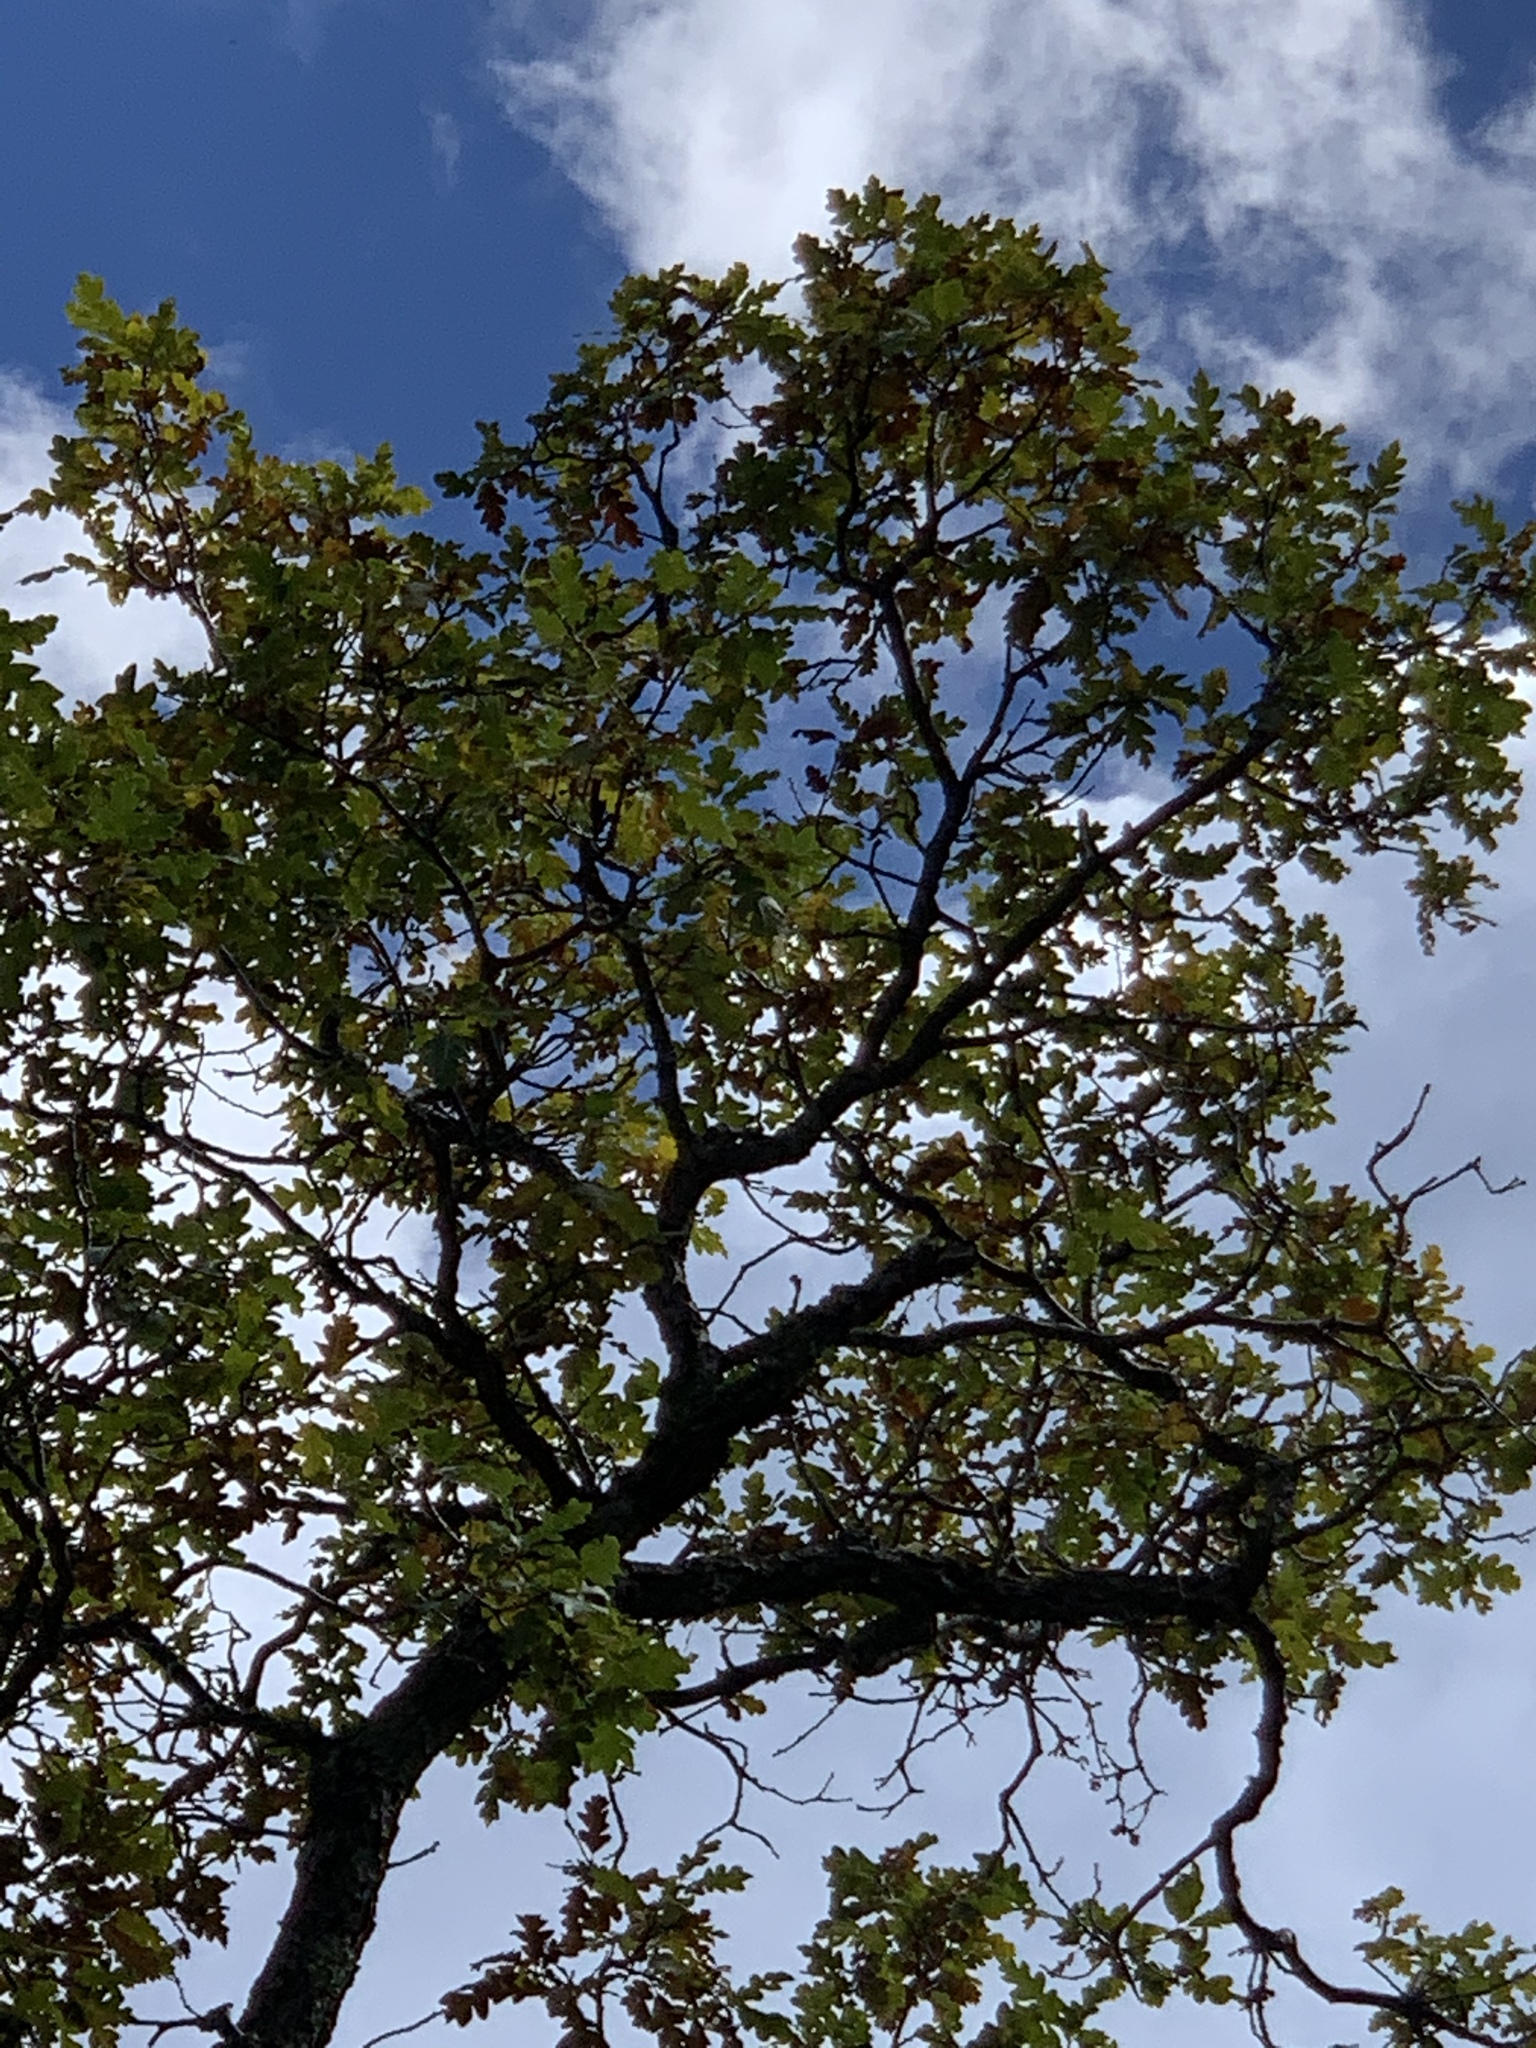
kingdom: Plantae
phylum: Tracheophyta
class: Magnoliopsida
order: Fagales
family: Fagaceae
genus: Quercus
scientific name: Quercus gambelii
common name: Gambel oak
